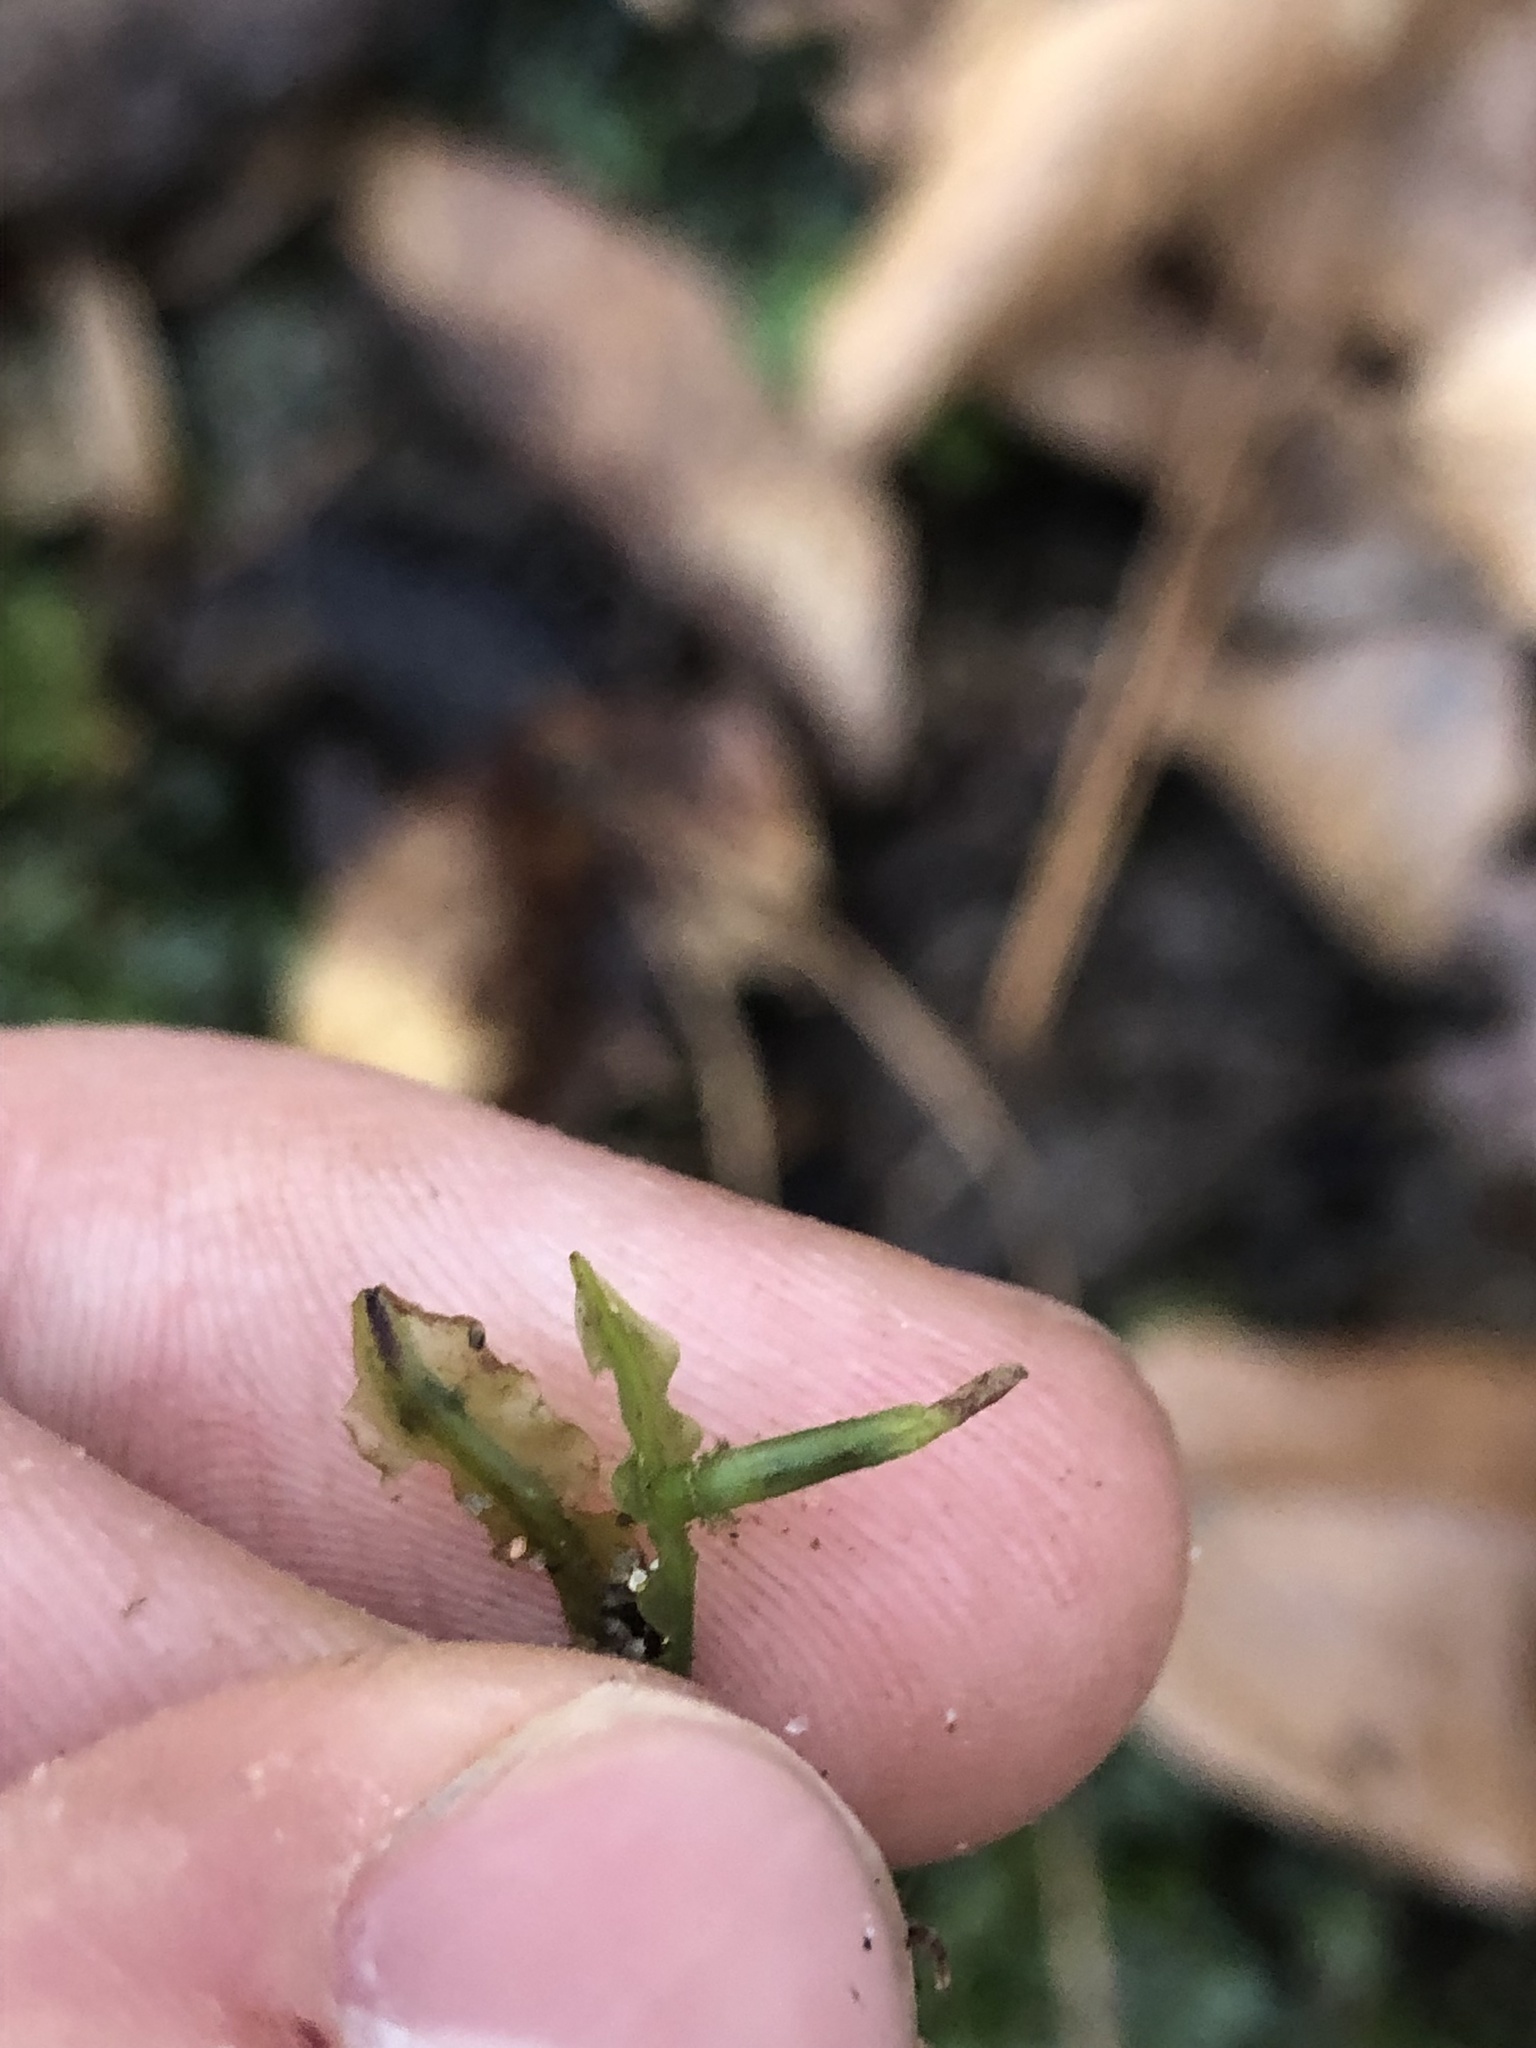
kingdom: Plantae
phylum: Marchantiophyta
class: Jungermanniopsida
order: Pallaviciniales
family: Pallaviciniaceae
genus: Pallavicinia
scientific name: Pallavicinia lyellii
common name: Veilwort
